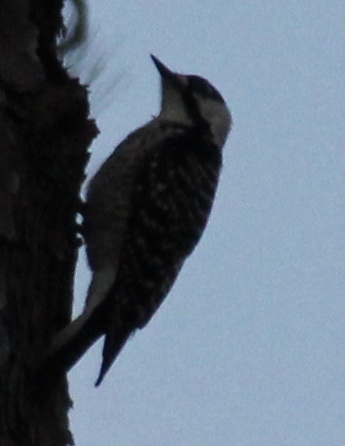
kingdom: Animalia
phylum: Chordata
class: Aves
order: Piciformes
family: Picidae
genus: Leuconotopicus
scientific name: Leuconotopicus borealis
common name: Red-cockaded woodpecker
